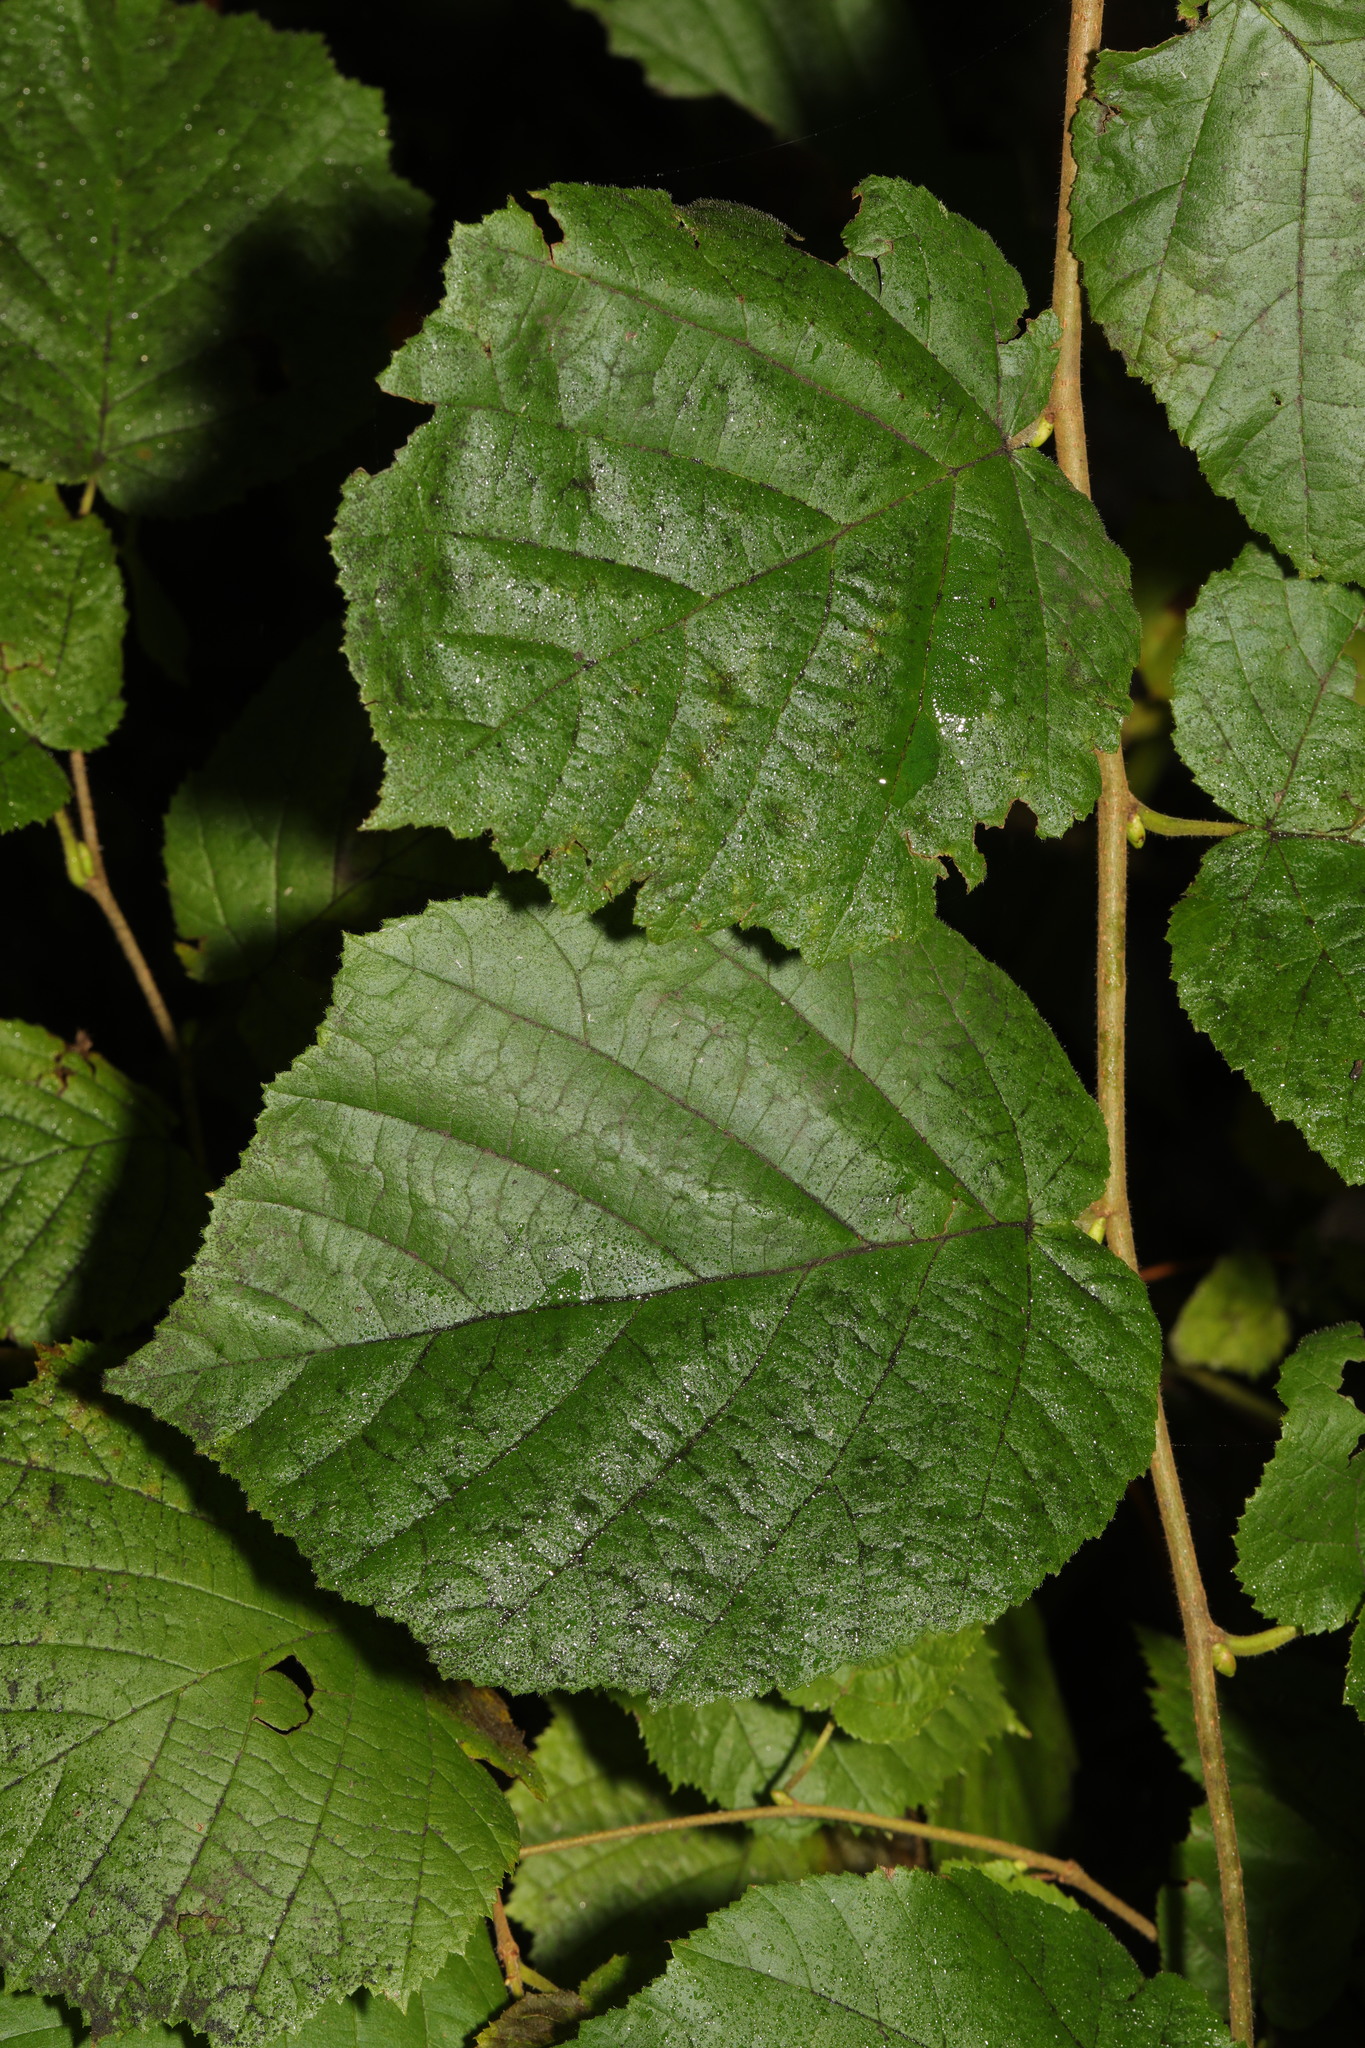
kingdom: Plantae
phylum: Tracheophyta
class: Magnoliopsida
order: Fagales
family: Betulaceae
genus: Corylus
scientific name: Corylus avellana
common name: European hazel
